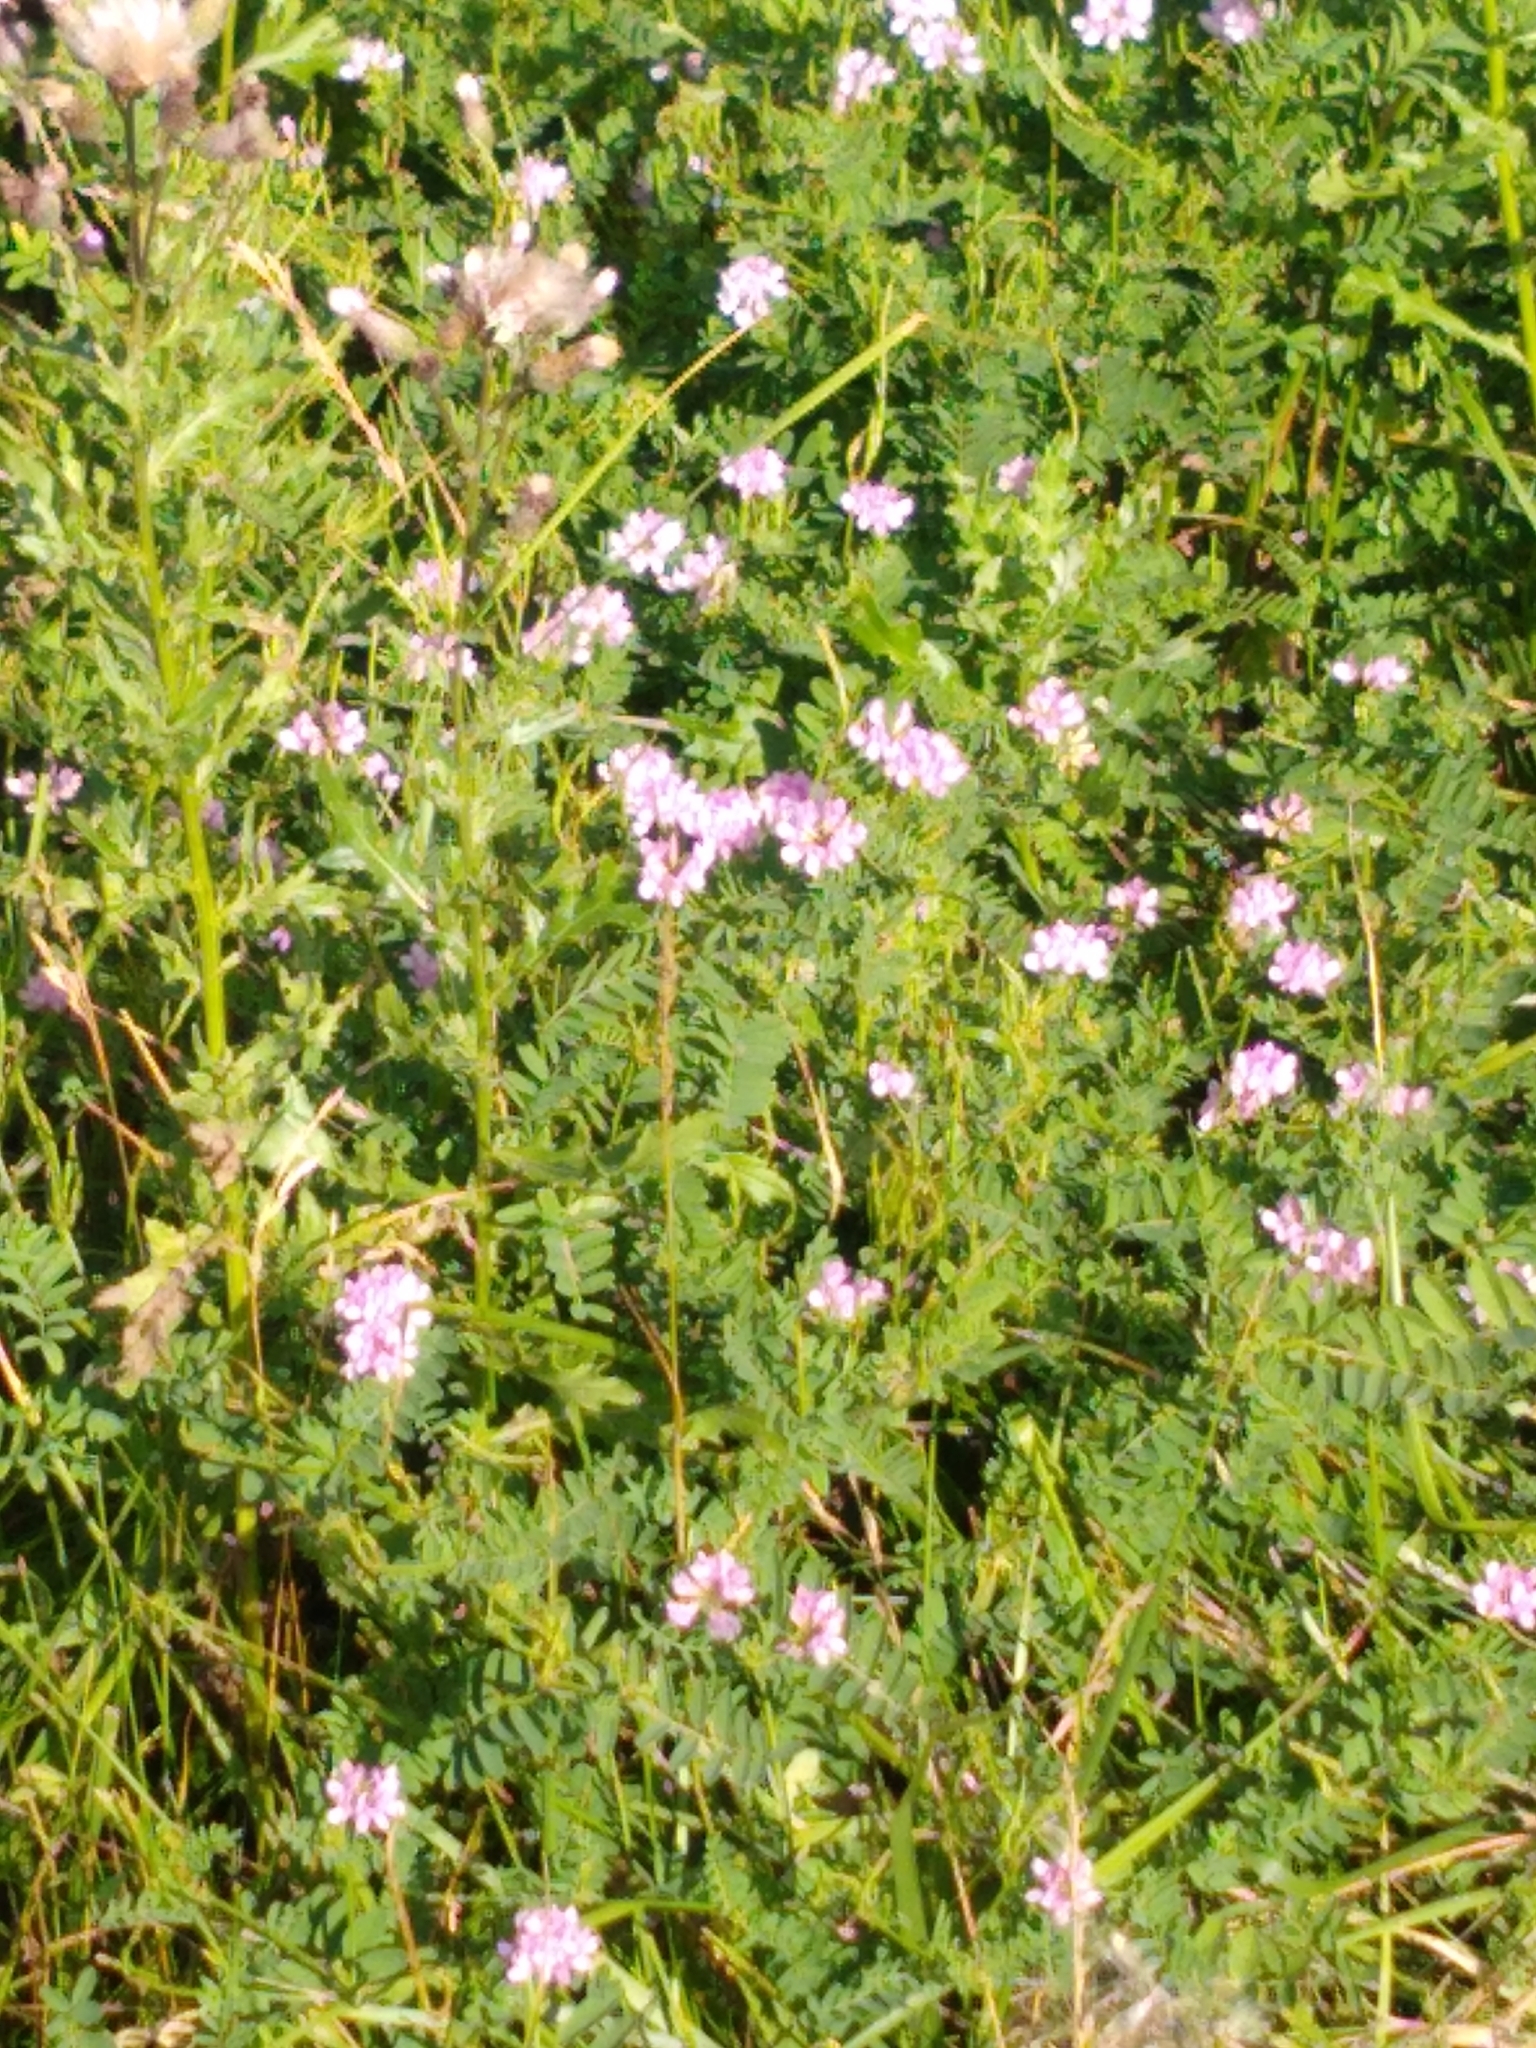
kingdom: Plantae
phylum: Tracheophyta
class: Magnoliopsida
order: Fabales
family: Fabaceae
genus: Coronilla
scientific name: Coronilla varia
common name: Crownvetch
